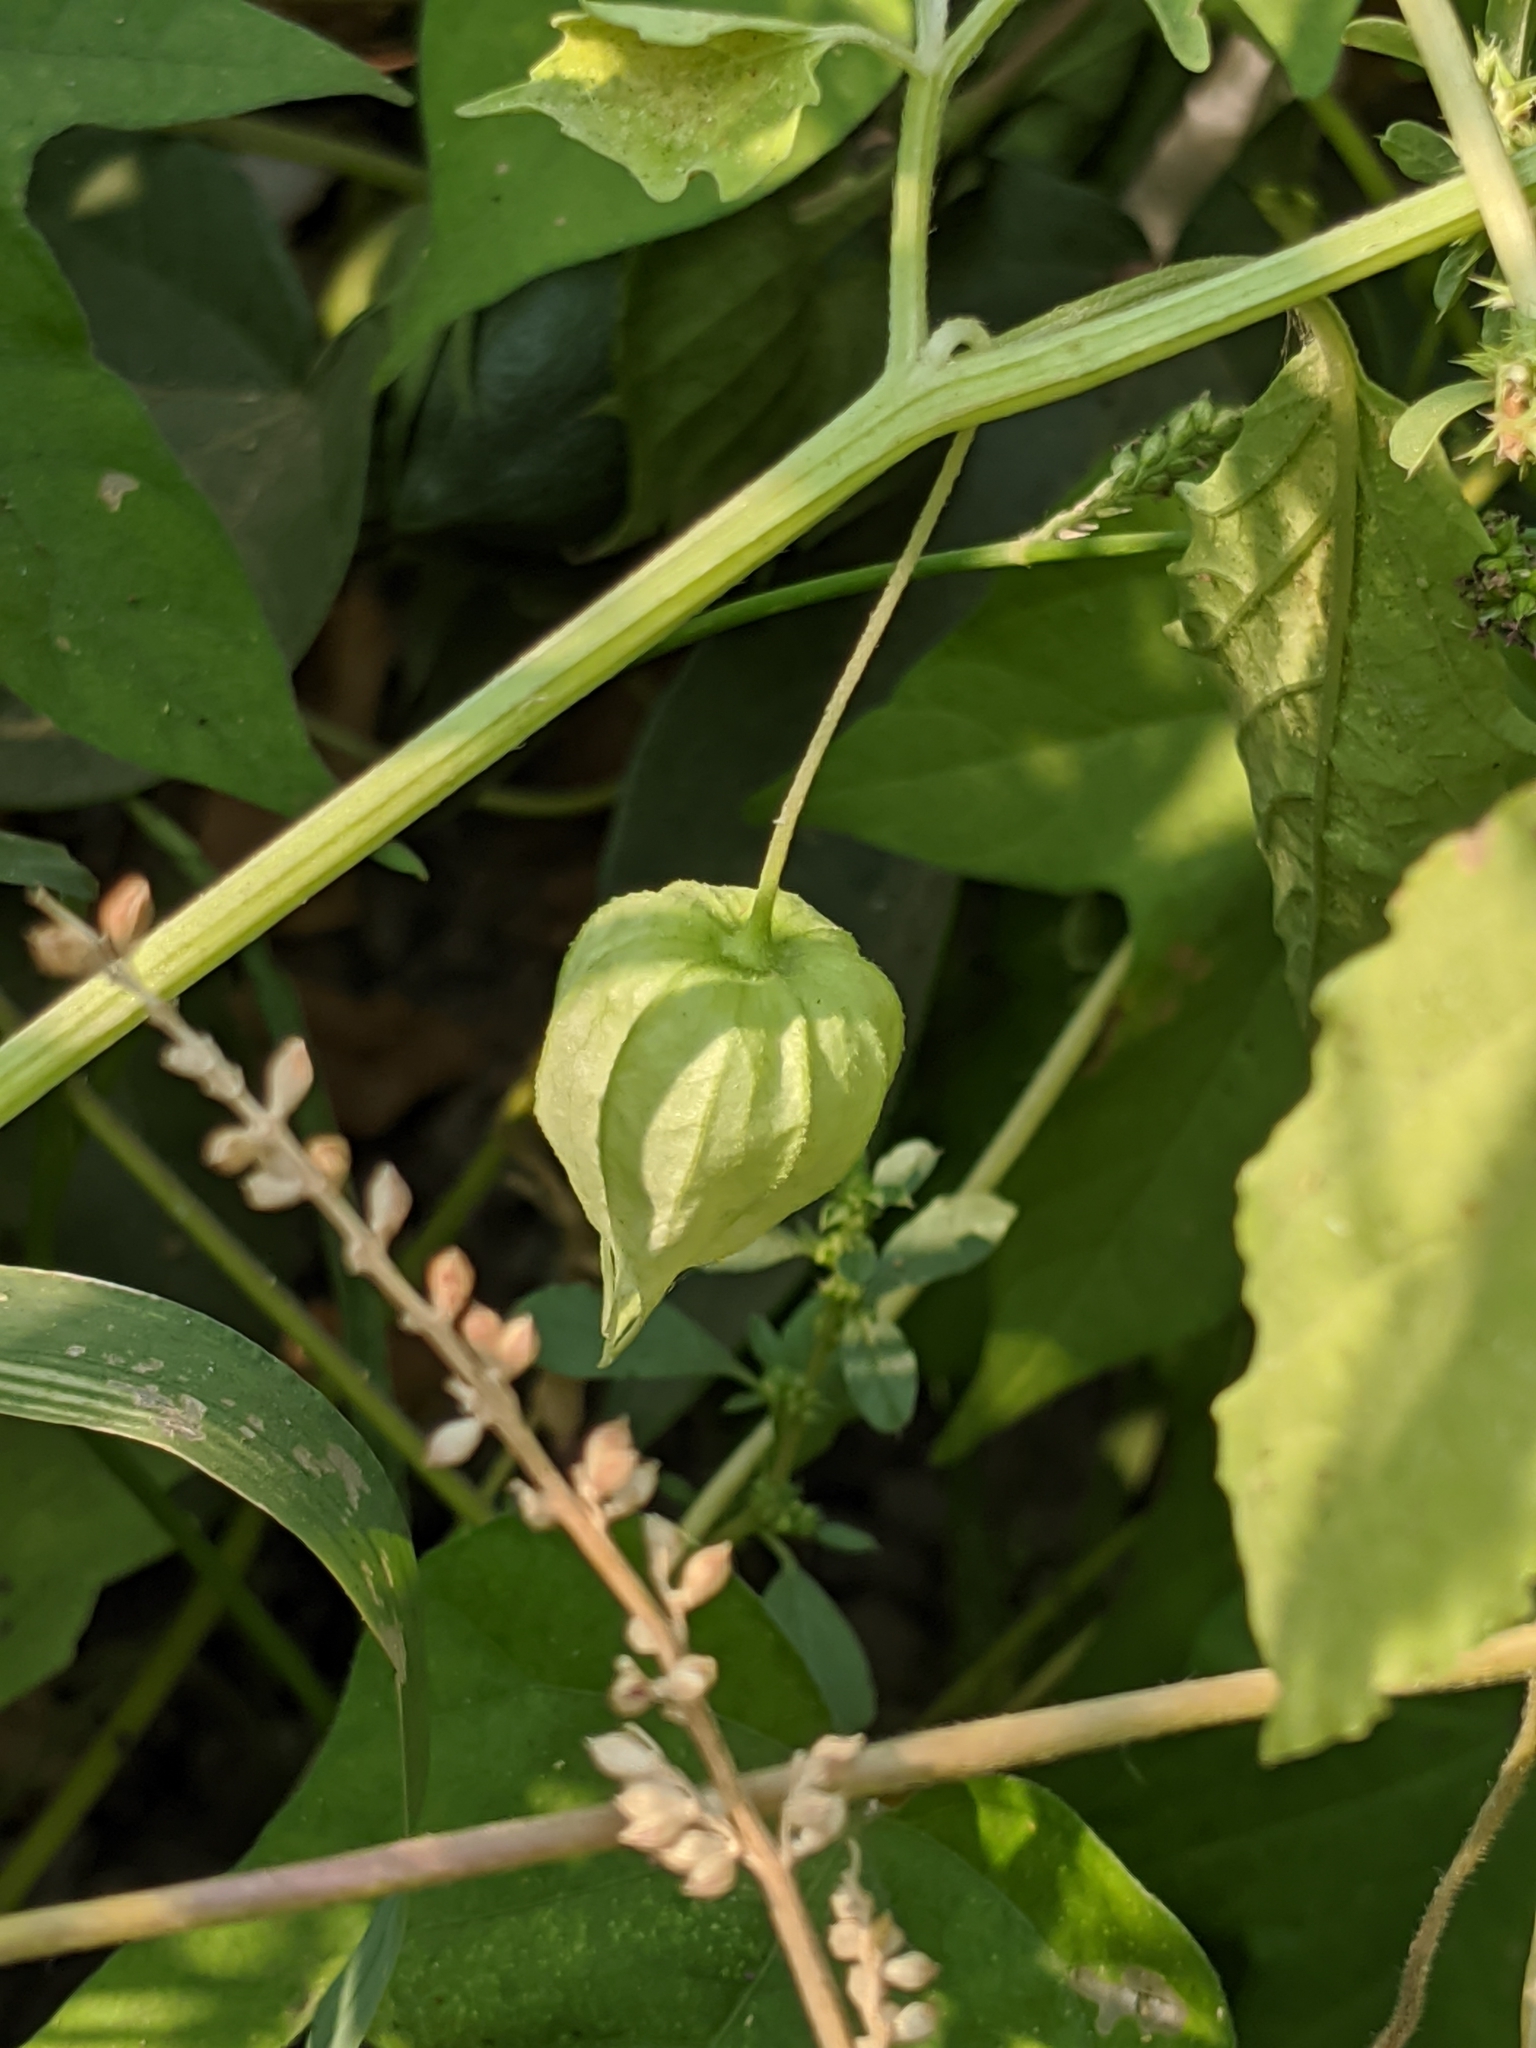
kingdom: Plantae
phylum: Tracheophyta
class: Magnoliopsida
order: Solanales
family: Solanaceae
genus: Physalis
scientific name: Physalis acutifolia
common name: Wright's ground-cherry
